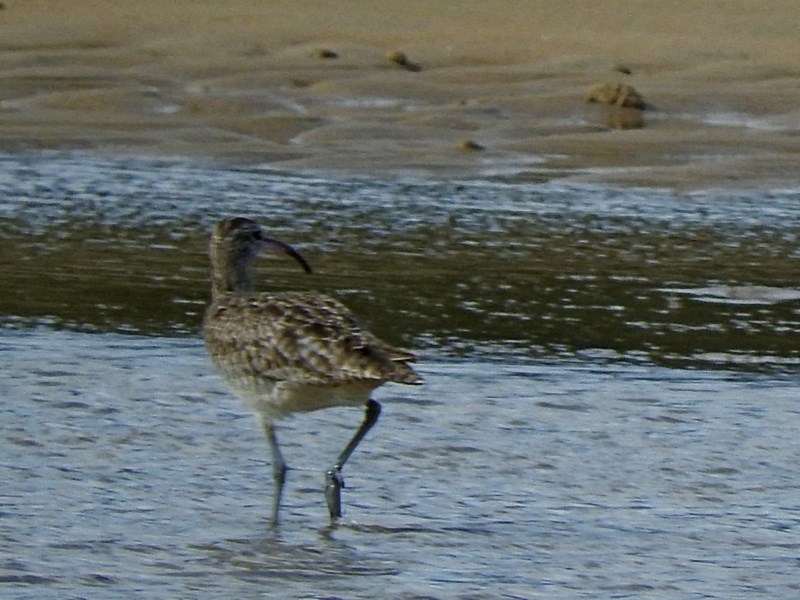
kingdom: Animalia
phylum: Chordata
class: Aves
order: Charadriiformes
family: Scolopacidae
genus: Numenius
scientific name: Numenius phaeopus
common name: Whimbrel
